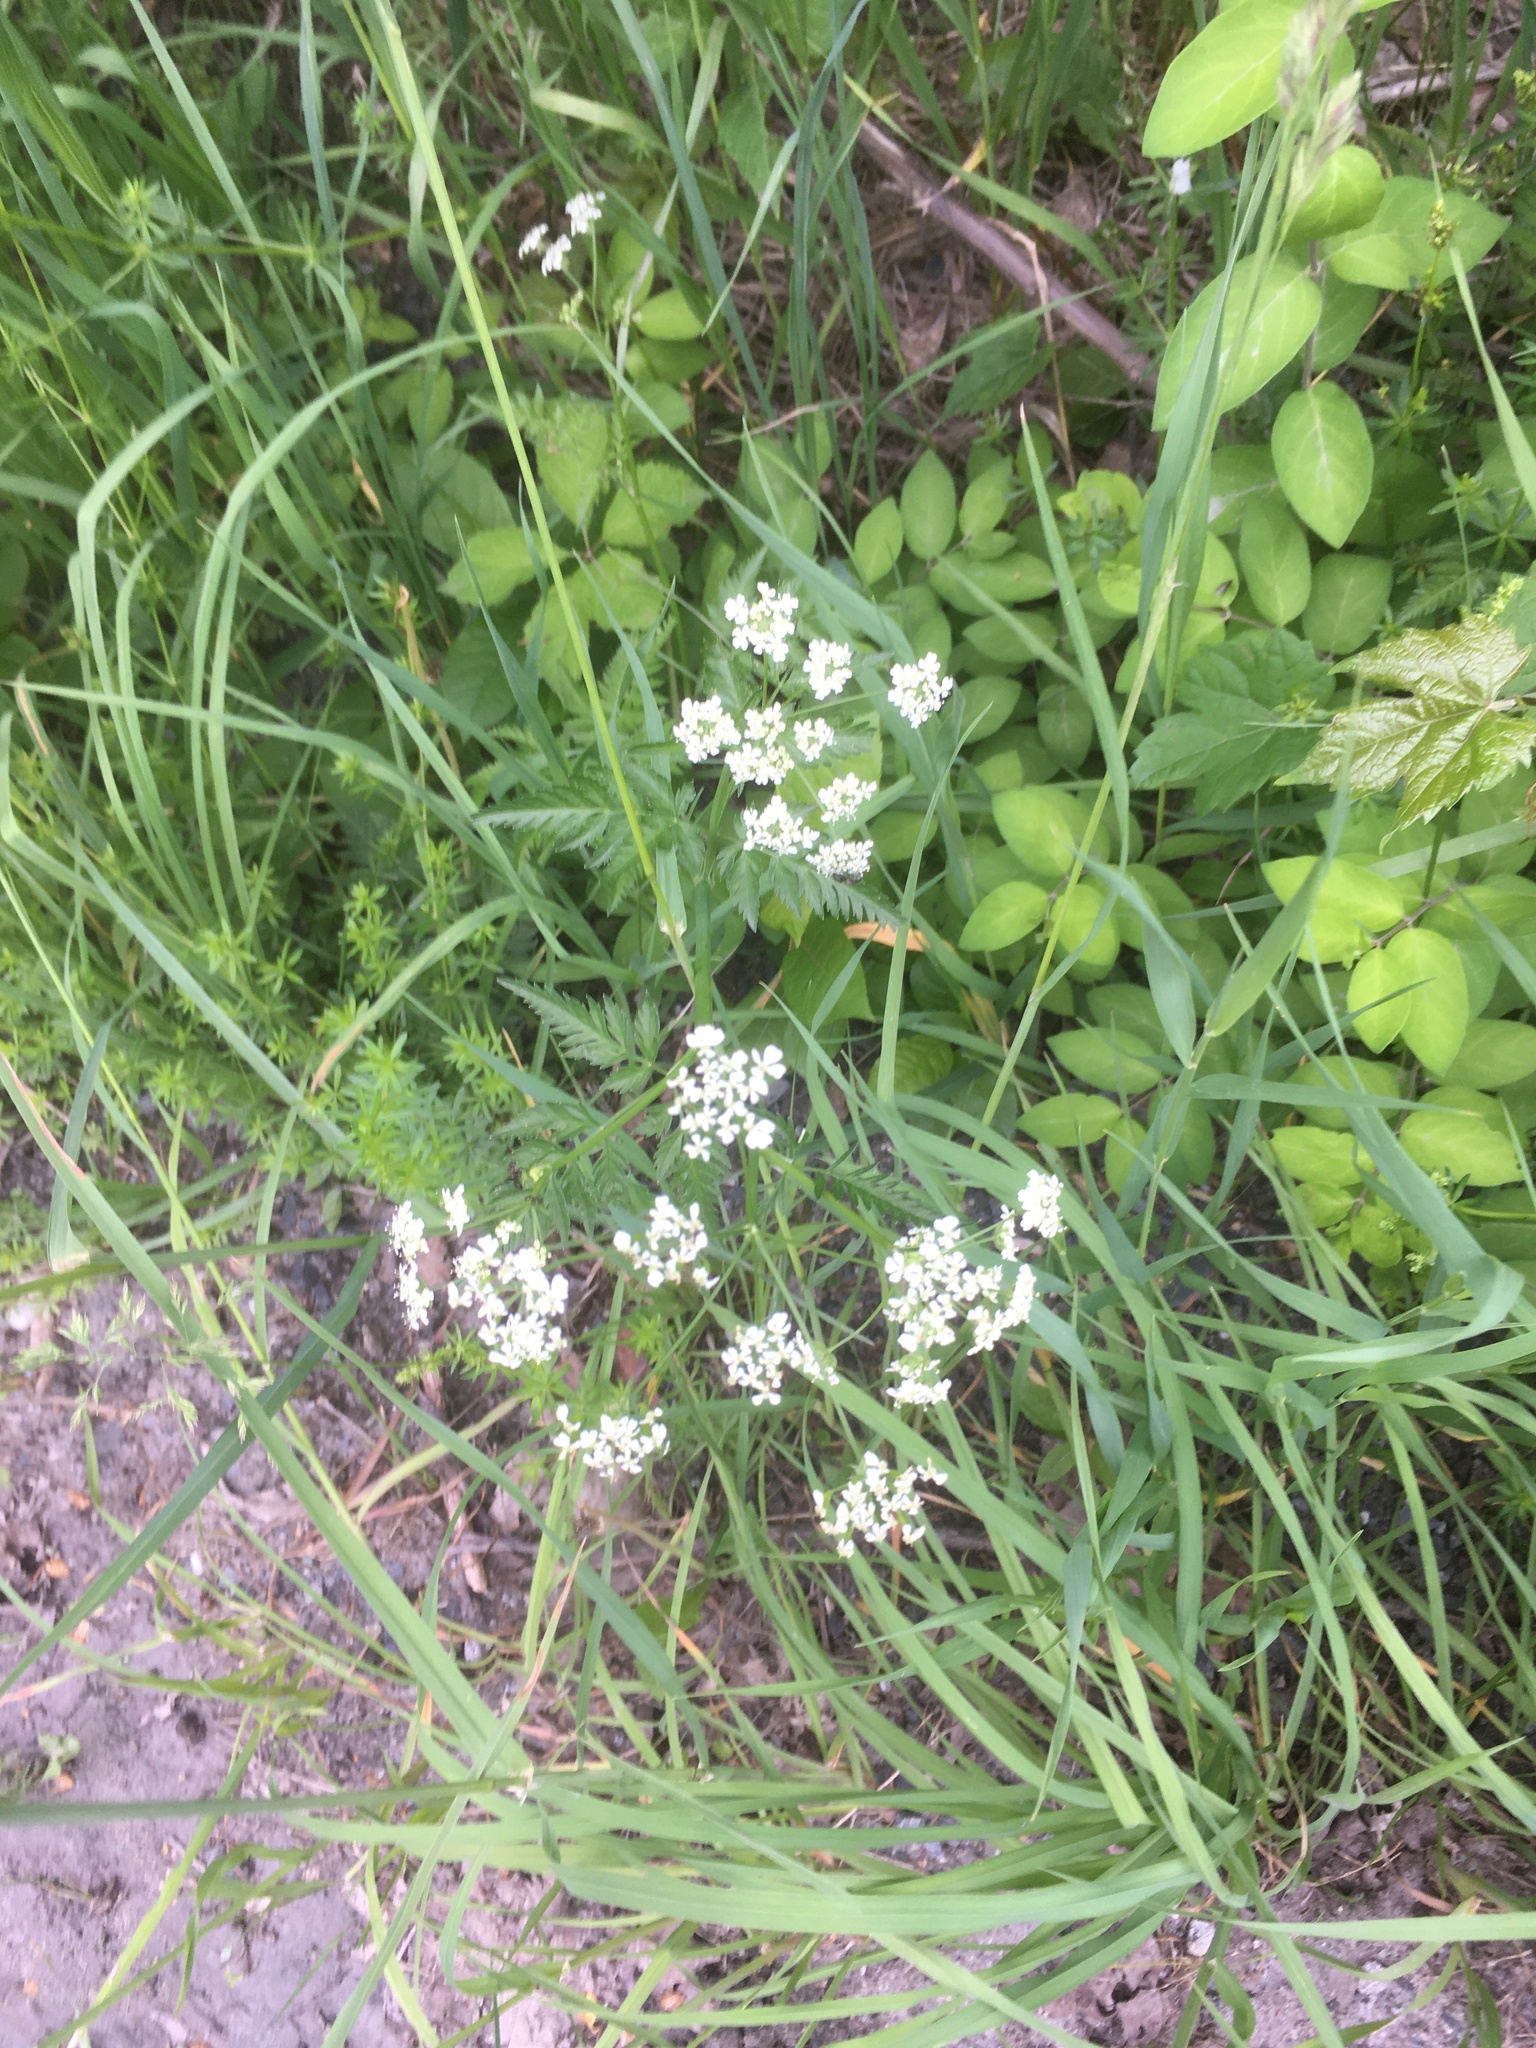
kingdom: Plantae
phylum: Tracheophyta
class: Magnoliopsida
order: Apiales
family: Apiaceae
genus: Anthriscus
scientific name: Anthriscus sylvestris
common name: Cow parsley
